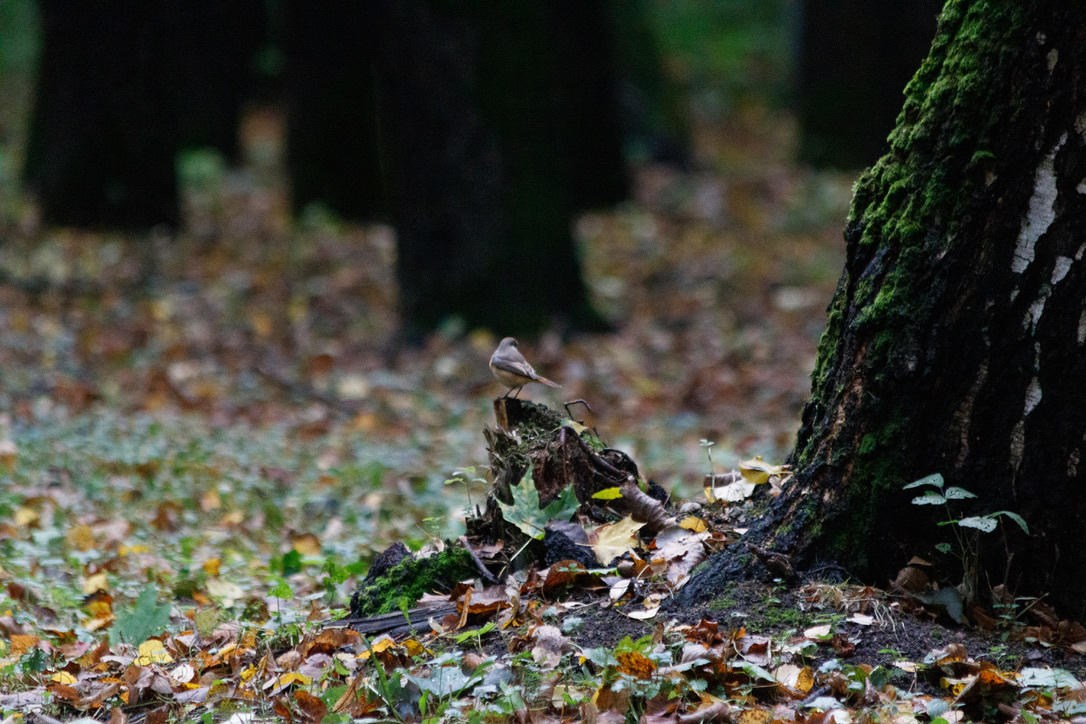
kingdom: Animalia
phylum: Chordata
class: Aves
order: Passeriformes
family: Muscicapidae
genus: Phoenicurus
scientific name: Phoenicurus phoenicurus
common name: Common redstart
